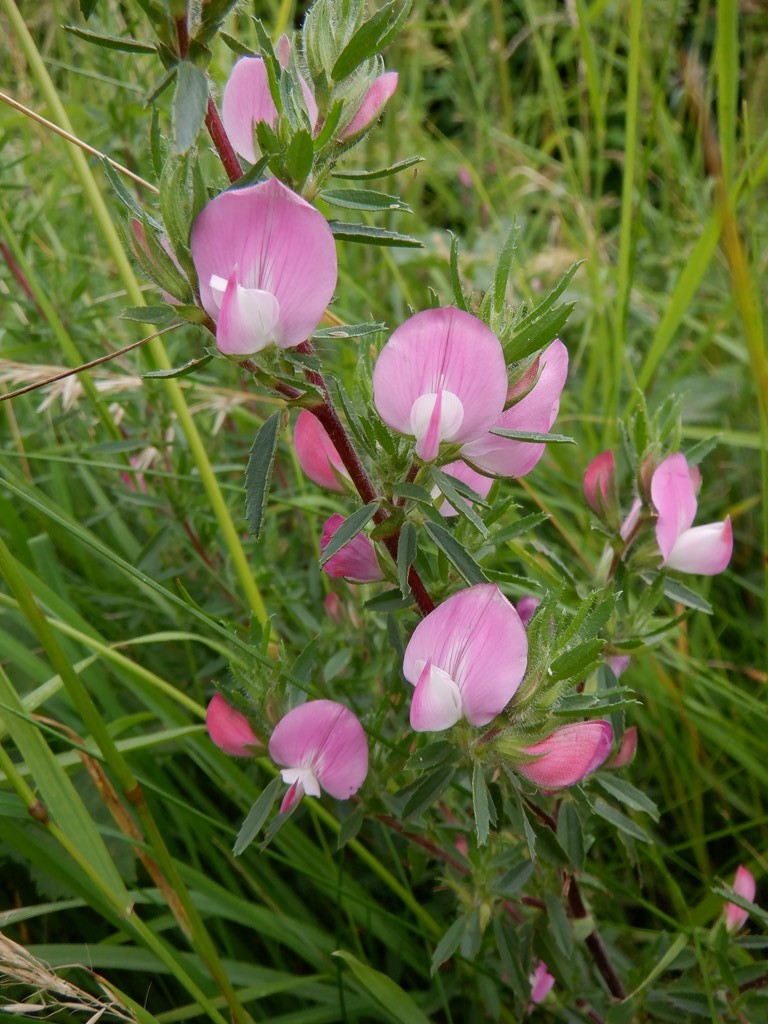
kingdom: Plantae
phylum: Tracheophyta
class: Magnoliopsida
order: Fabales
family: Fabaceae
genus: Ononis
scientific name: Ononis spinosa
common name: Spiny restharrow
